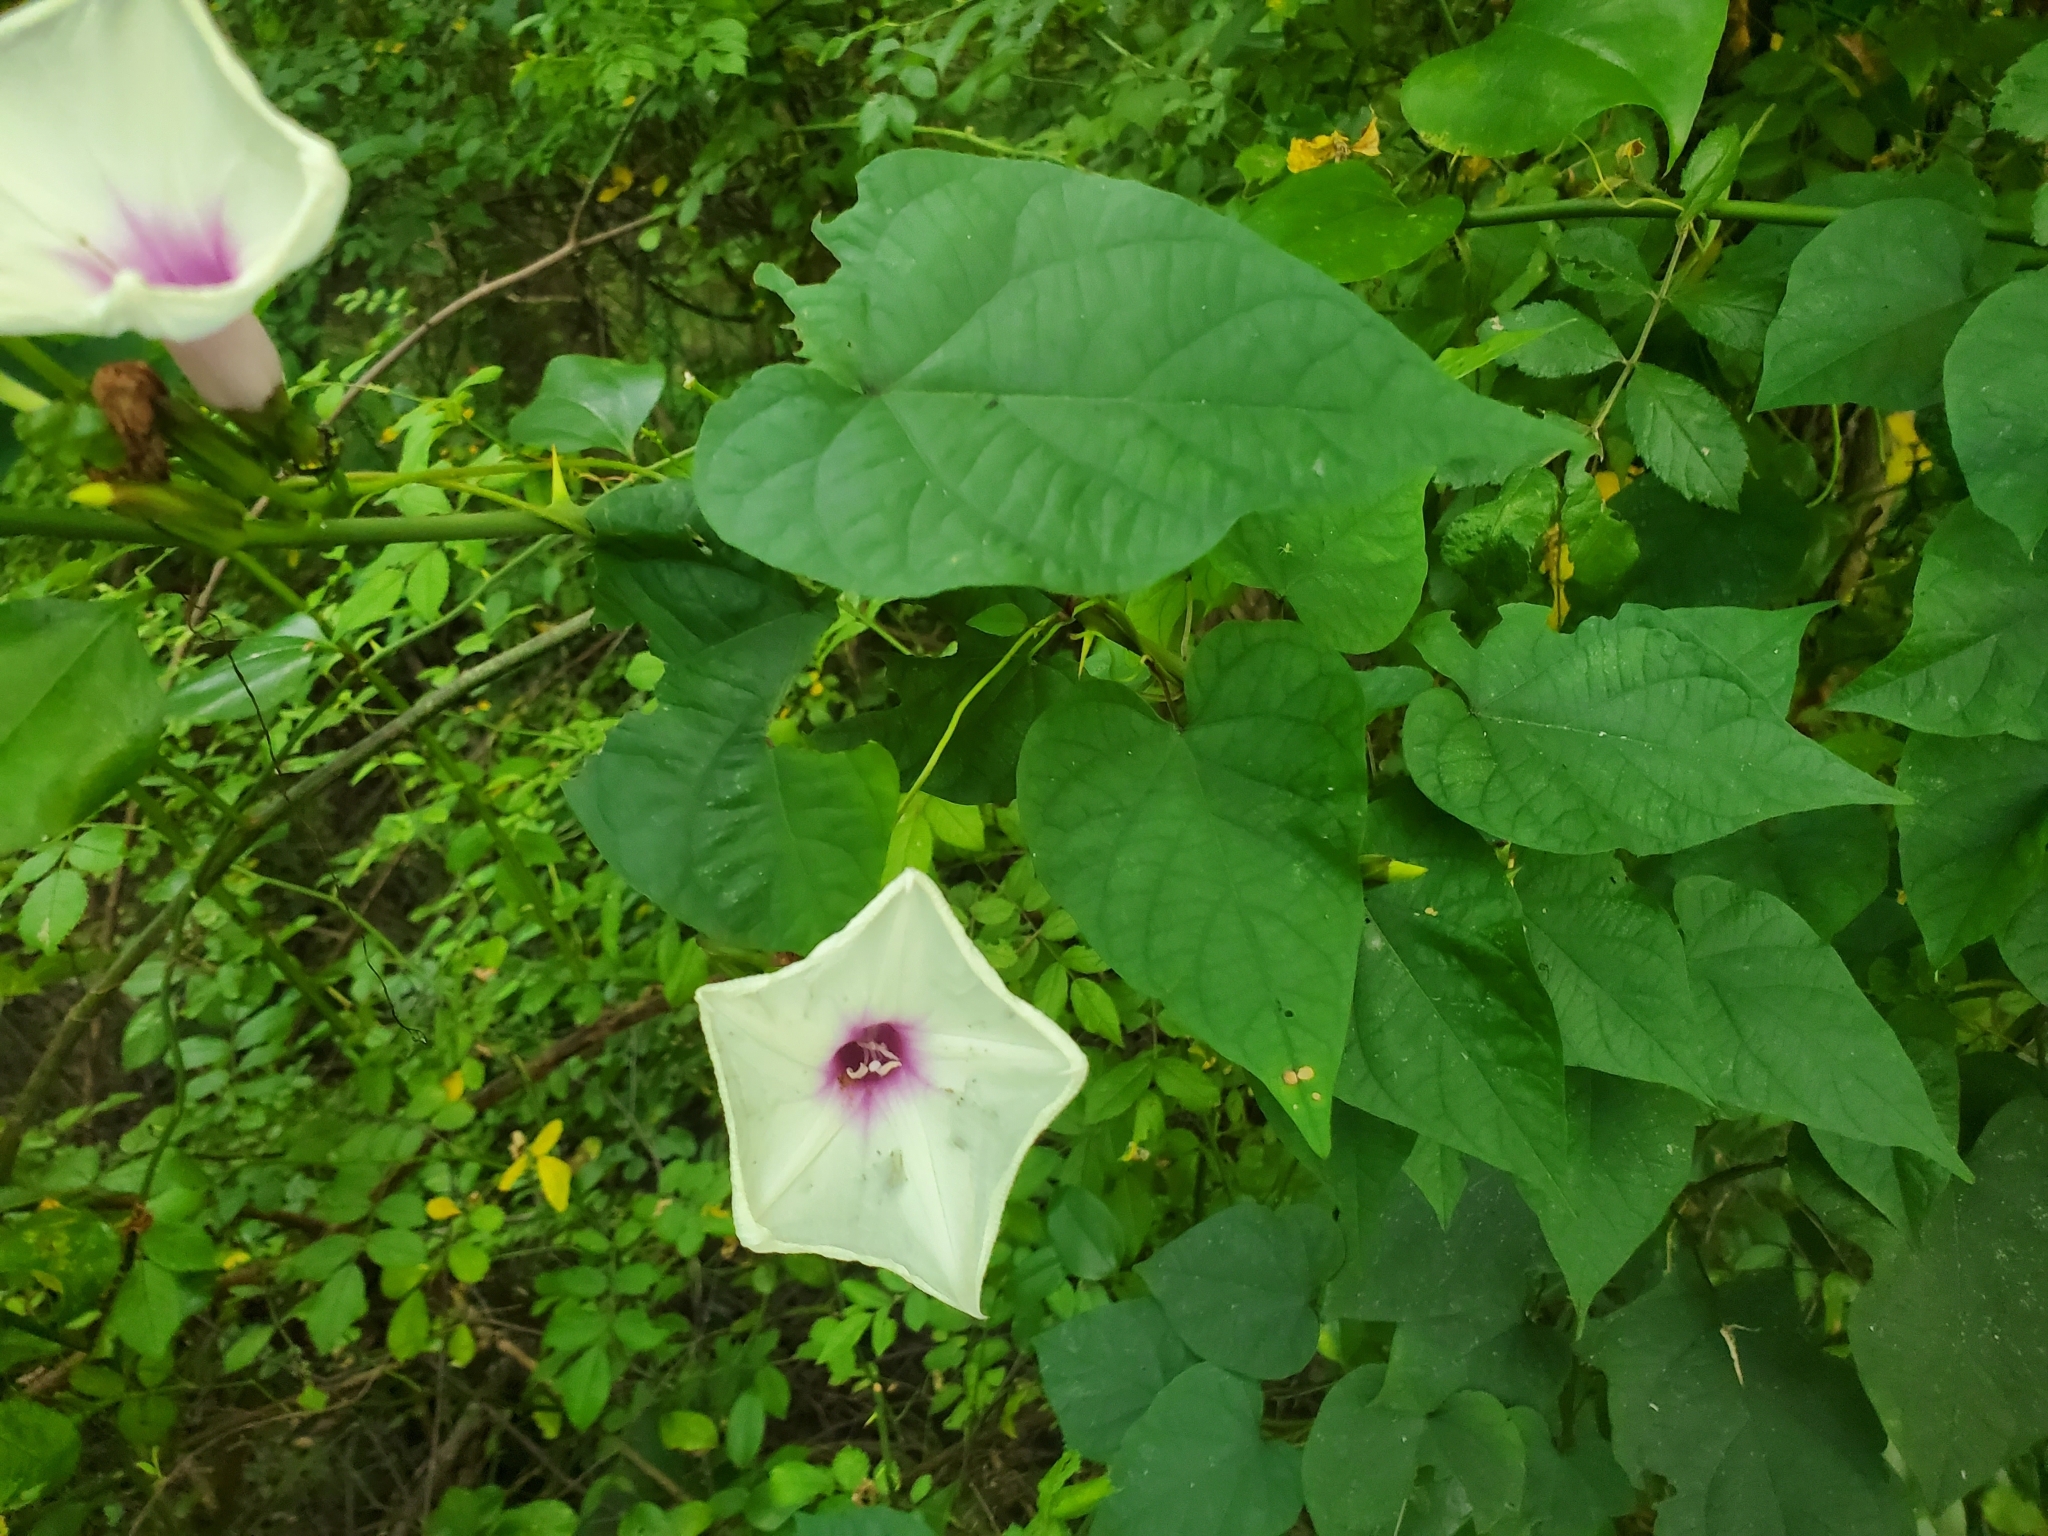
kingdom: Plantae
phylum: Tracheophyta
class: Magnoliopsida
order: Solanales
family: Convolvulaceae
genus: Ipomoea
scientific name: Ipomoea pandurata
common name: Man-of-the-earth
